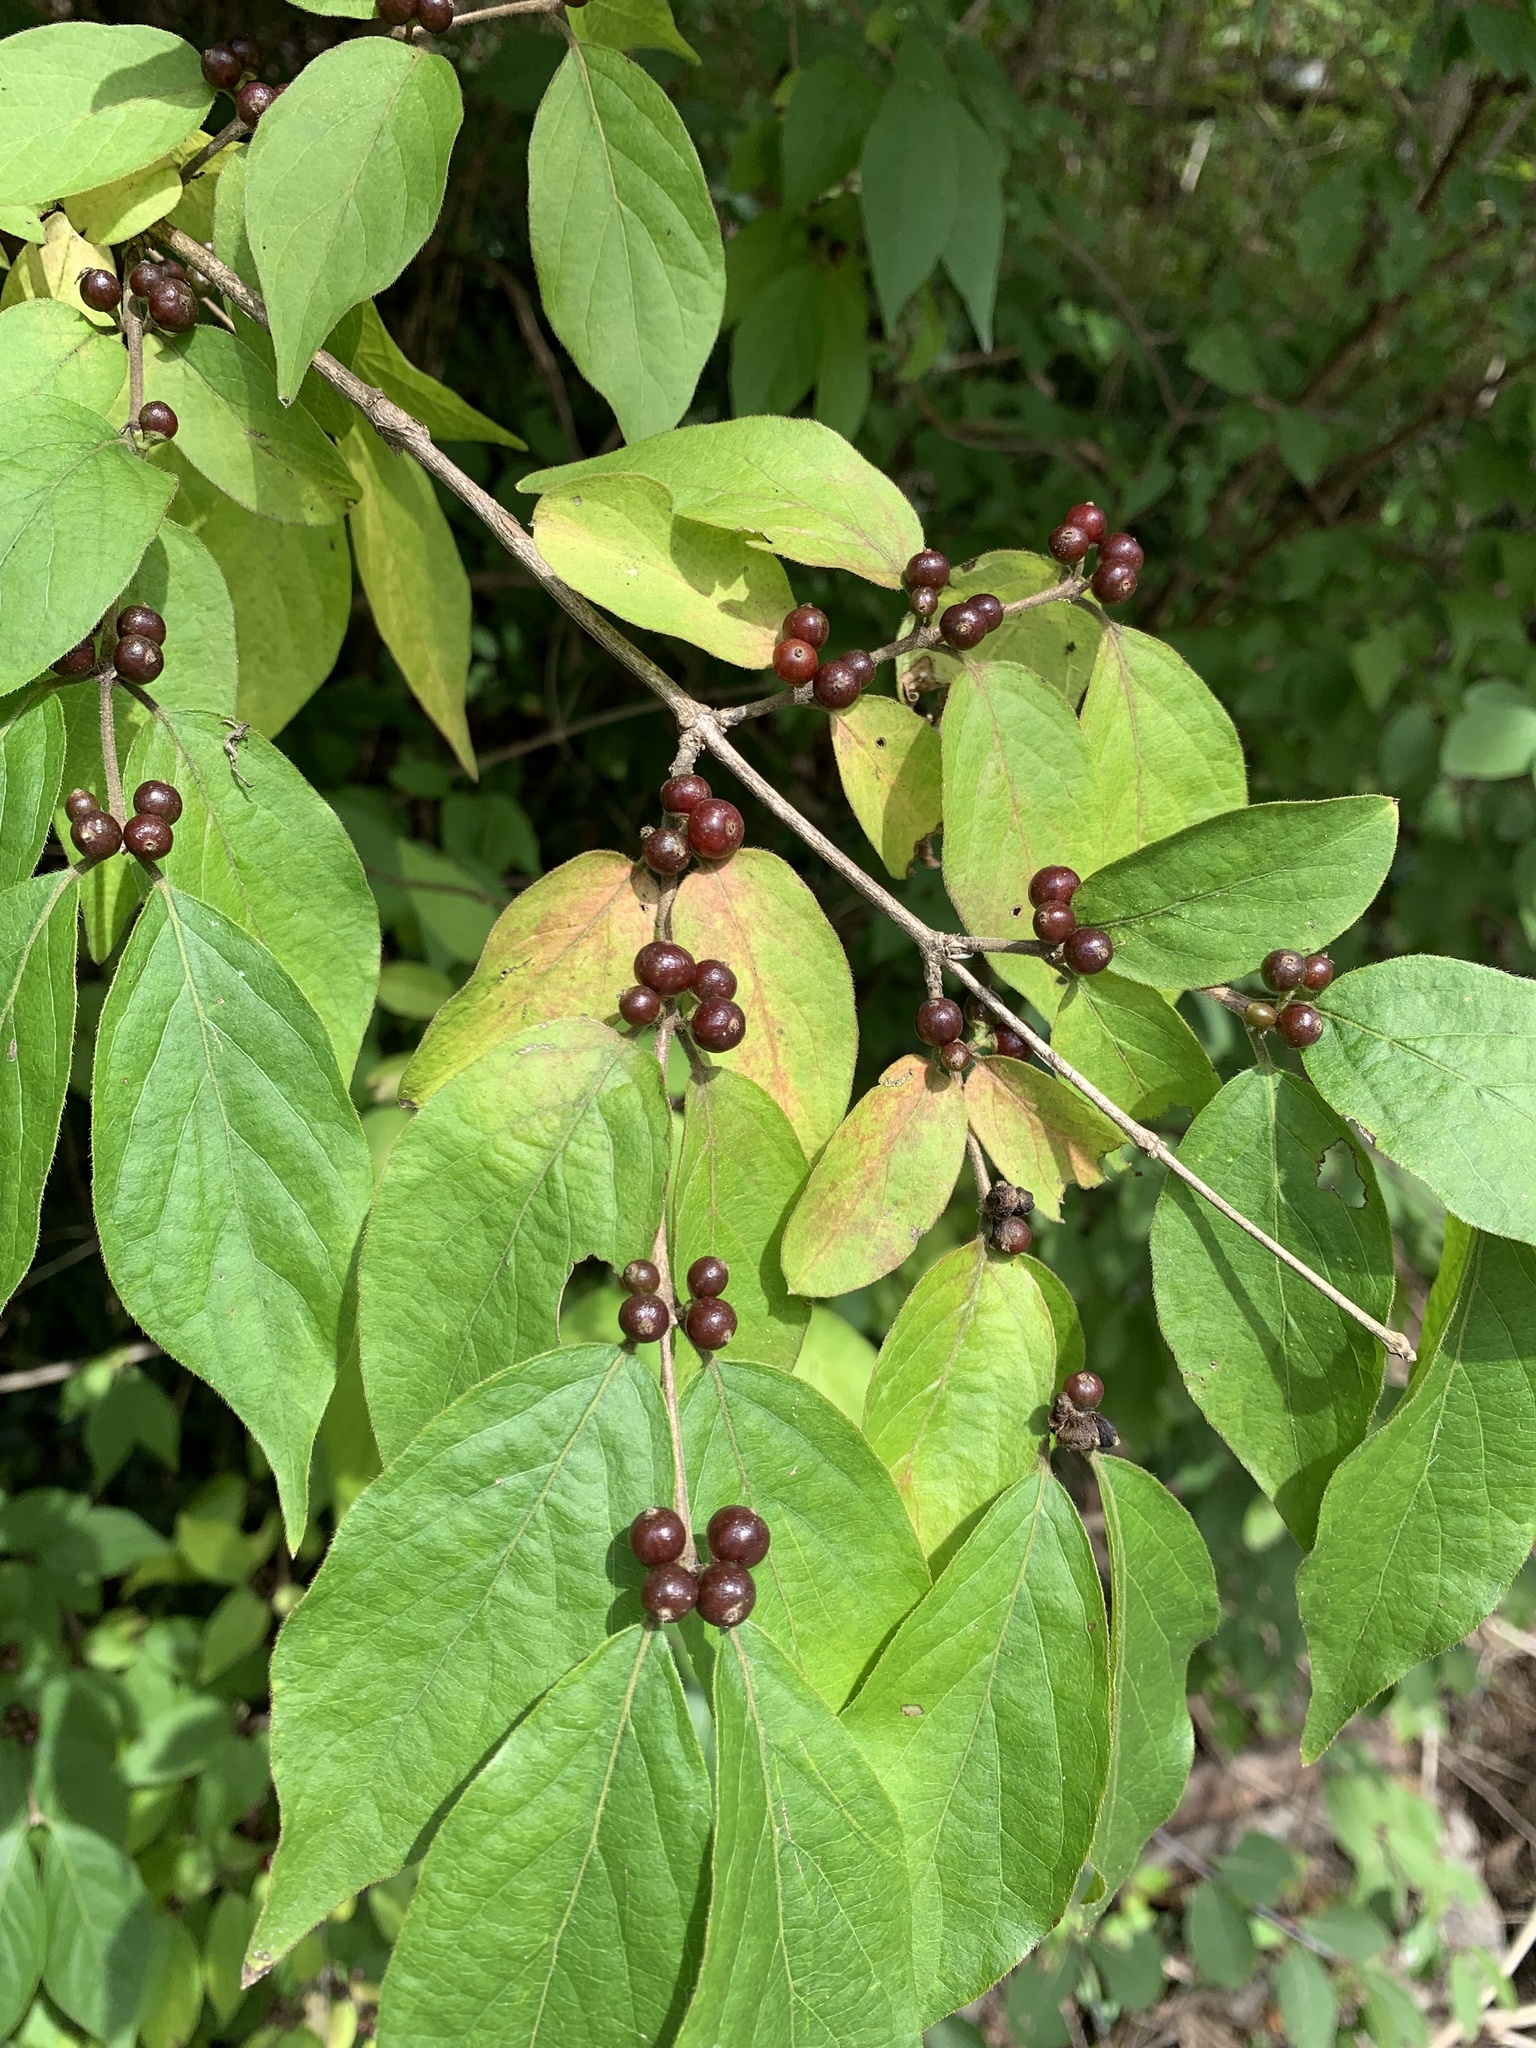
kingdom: Plantae
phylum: Tracheophyta
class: Magnoliopsida
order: Dipsacales
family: Caprifoliaceae
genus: Lonicera
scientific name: Lonicera maackii
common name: Amur honeysuckle
